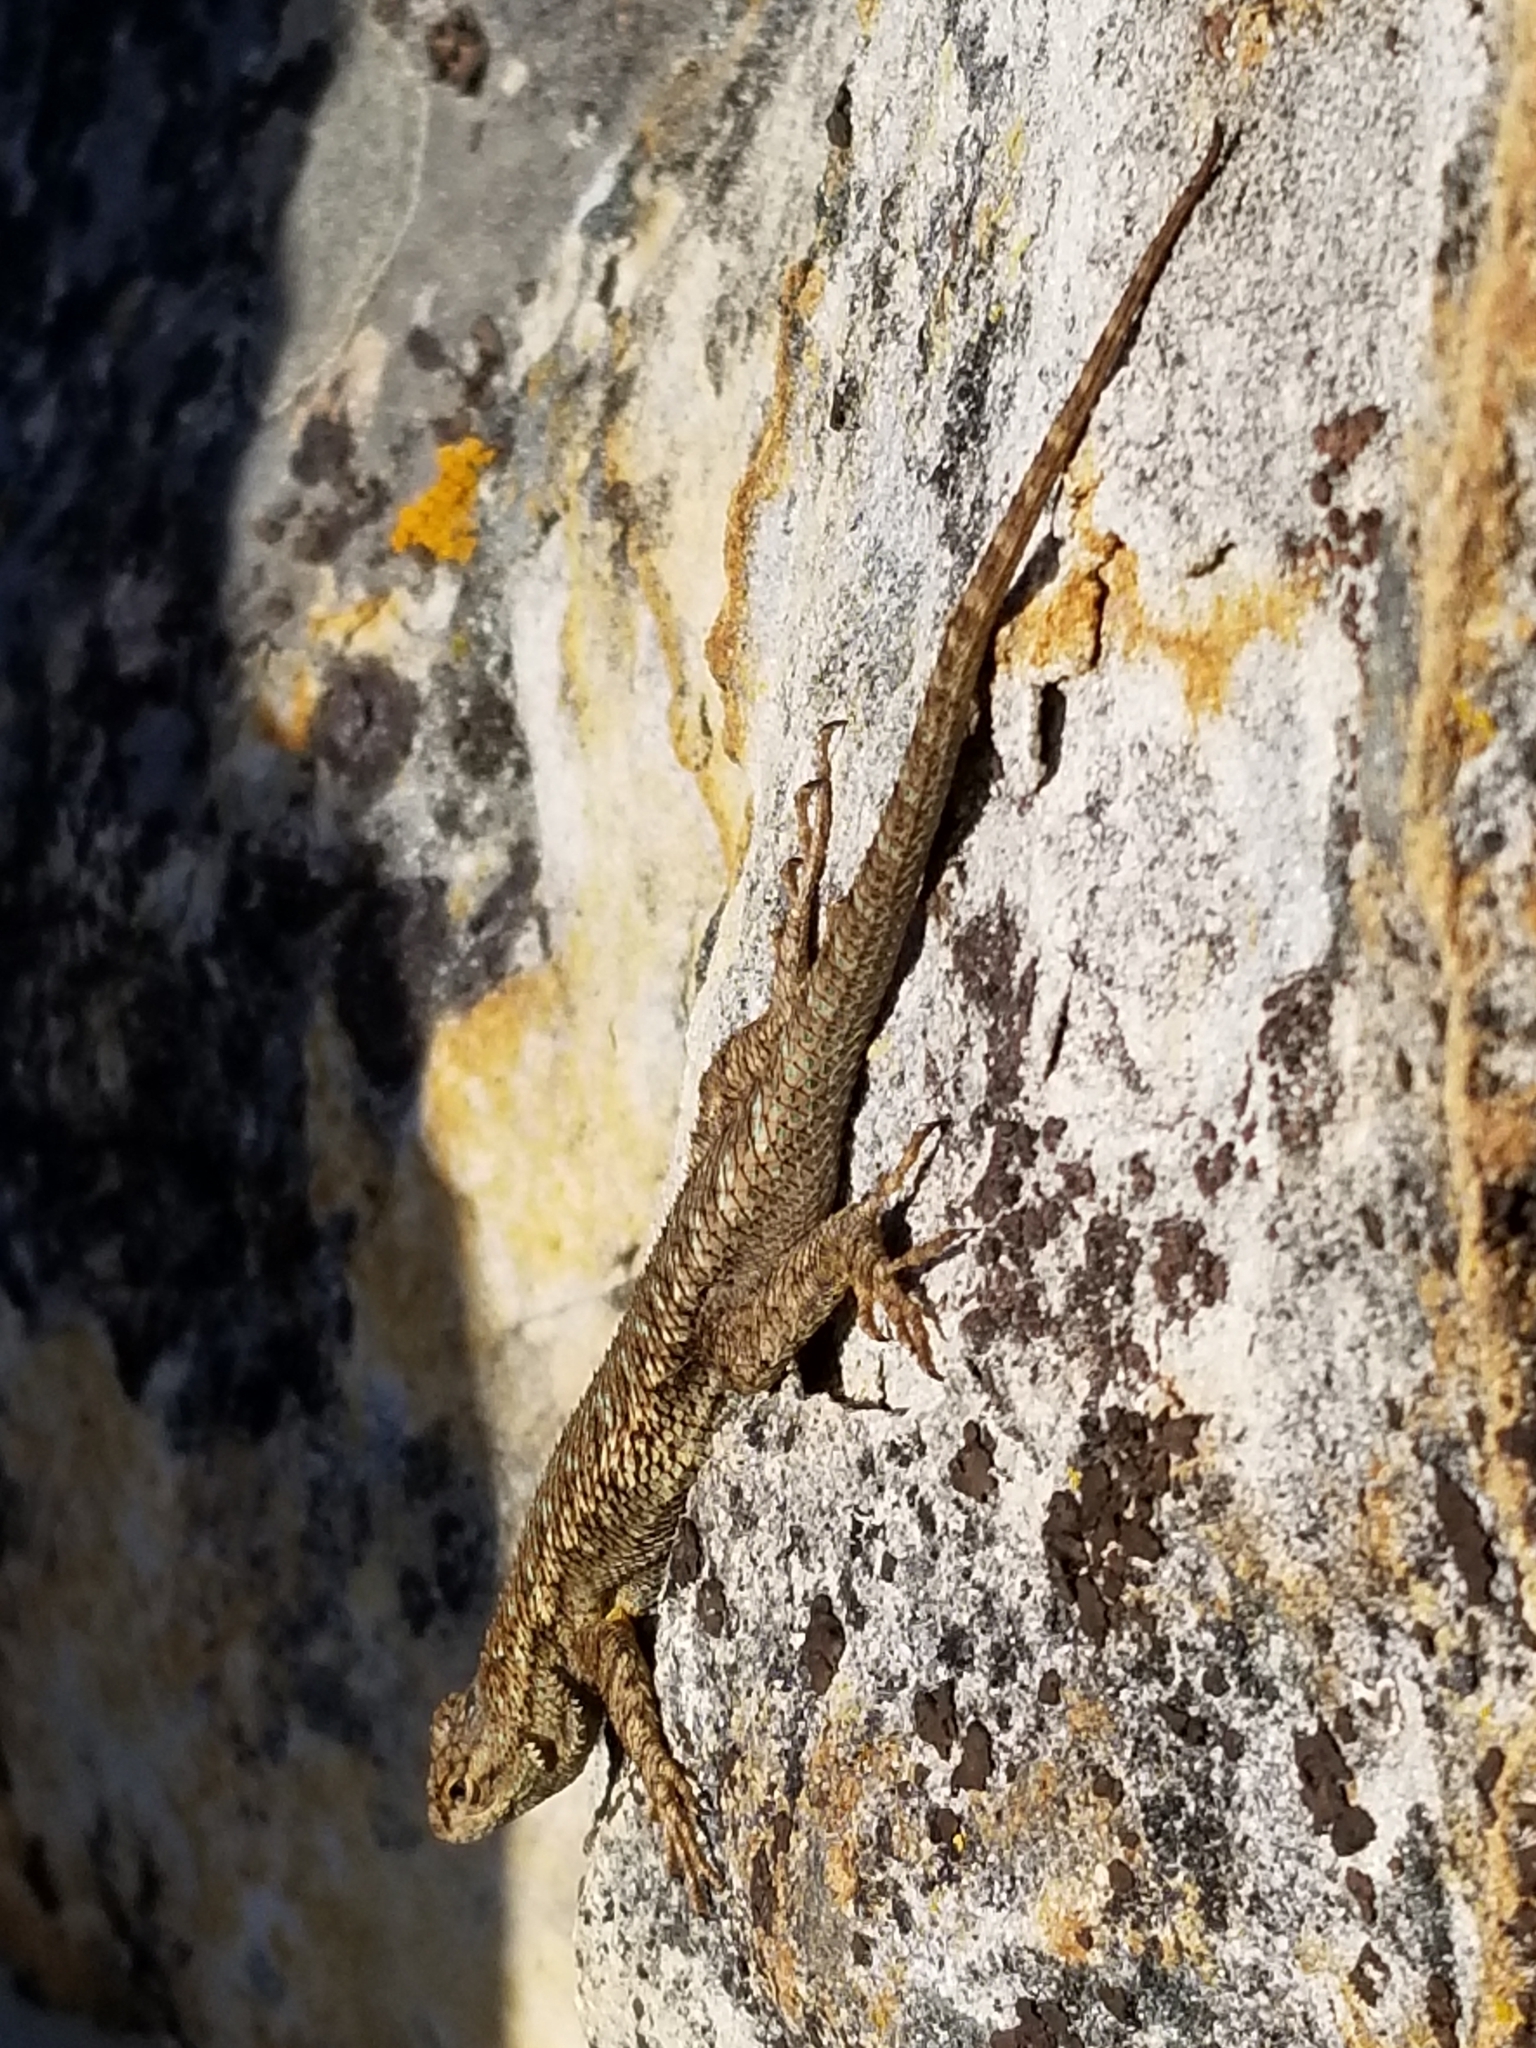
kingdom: Animalia
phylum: Chordata
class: Squamata
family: Phrynosomatidae
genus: Sceloporus
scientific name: Sceloporus occidentalis
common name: Western fence lizard
